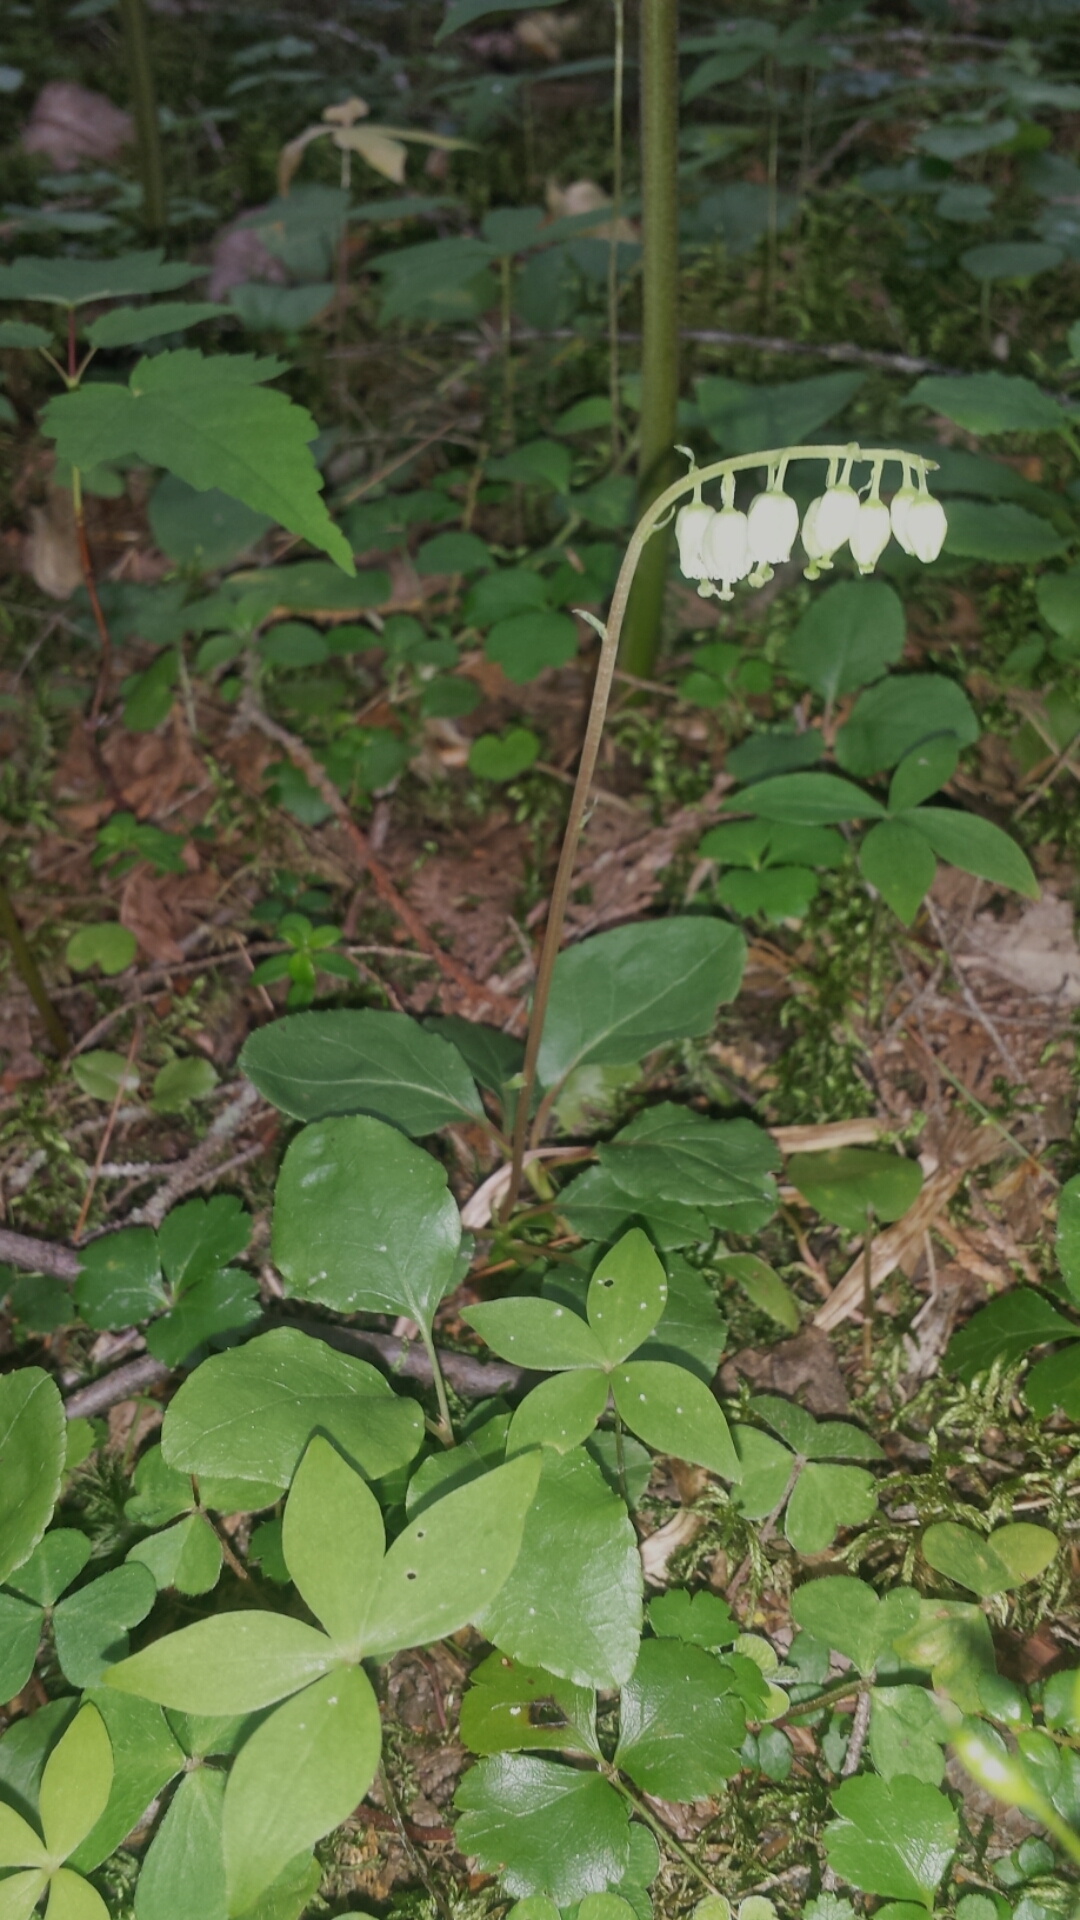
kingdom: Plantae
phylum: Tracheophyta
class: Magnoliopsida
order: Ericales
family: Ericaceae
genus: Orthilia
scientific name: Orthilia secunda
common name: One-sided orthilia
